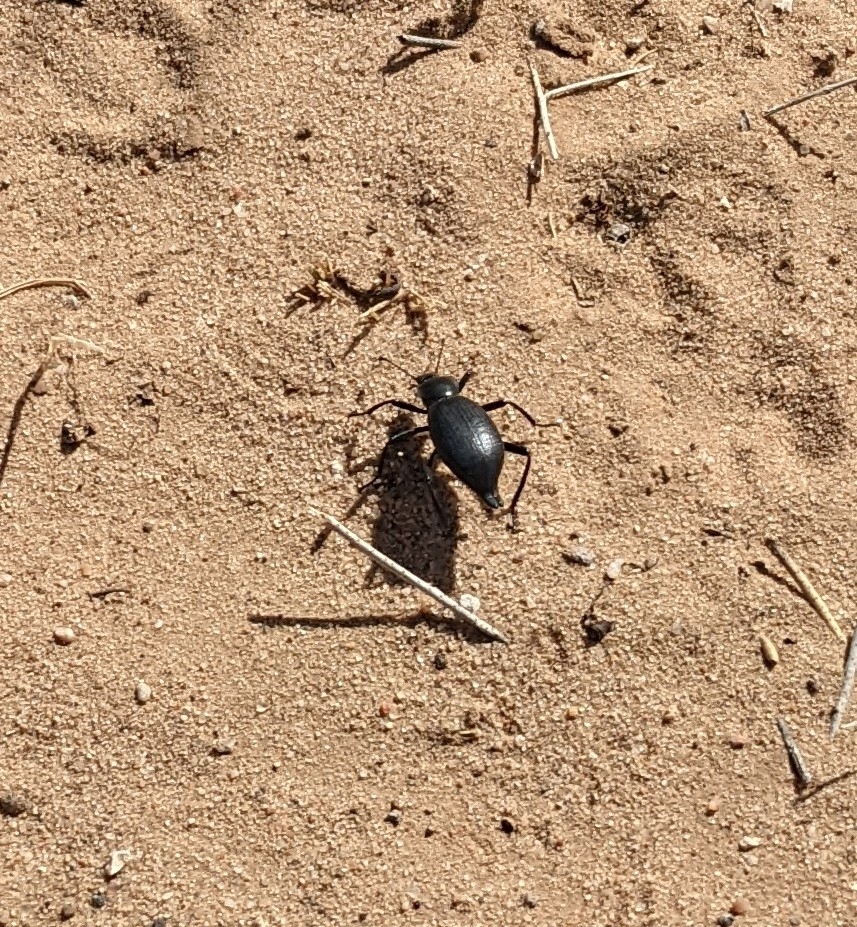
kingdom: Animalia
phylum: Arthropoda
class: Insecta
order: Coleoptera
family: Tenebrionidae
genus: Eleodes
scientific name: Eleodes caudifera
